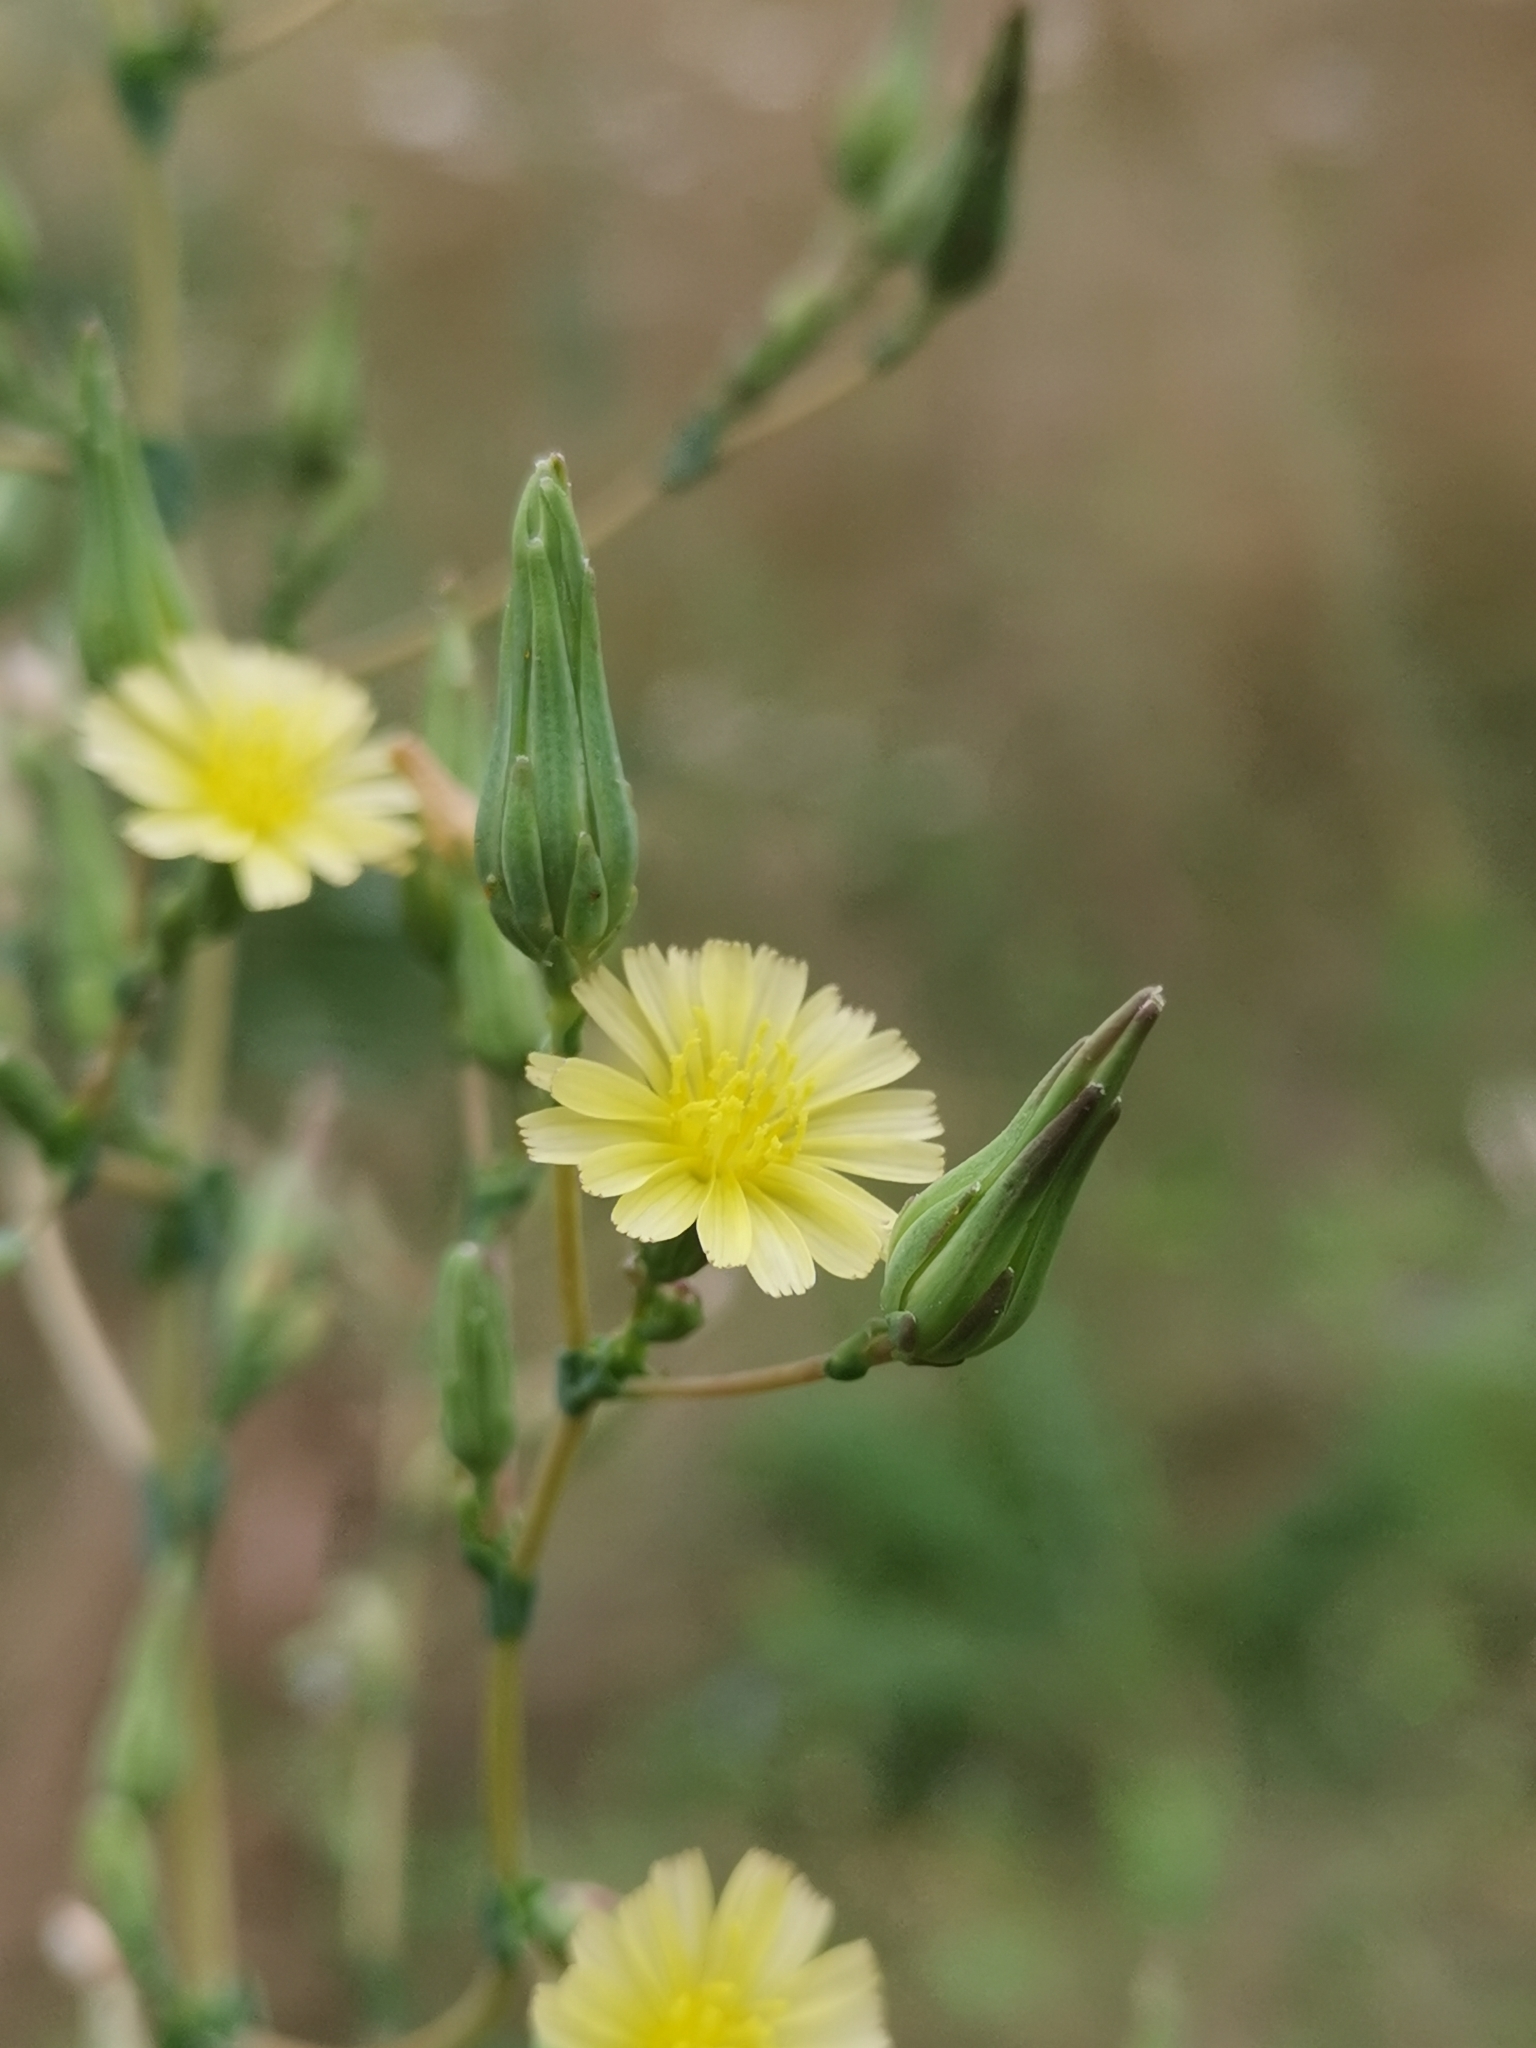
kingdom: Plantae
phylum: Tracheophyta
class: Magnoliopsida
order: Asterales
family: Asteraceae
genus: Lactuca
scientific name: Lactuca serriola
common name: Prickly lettuce
